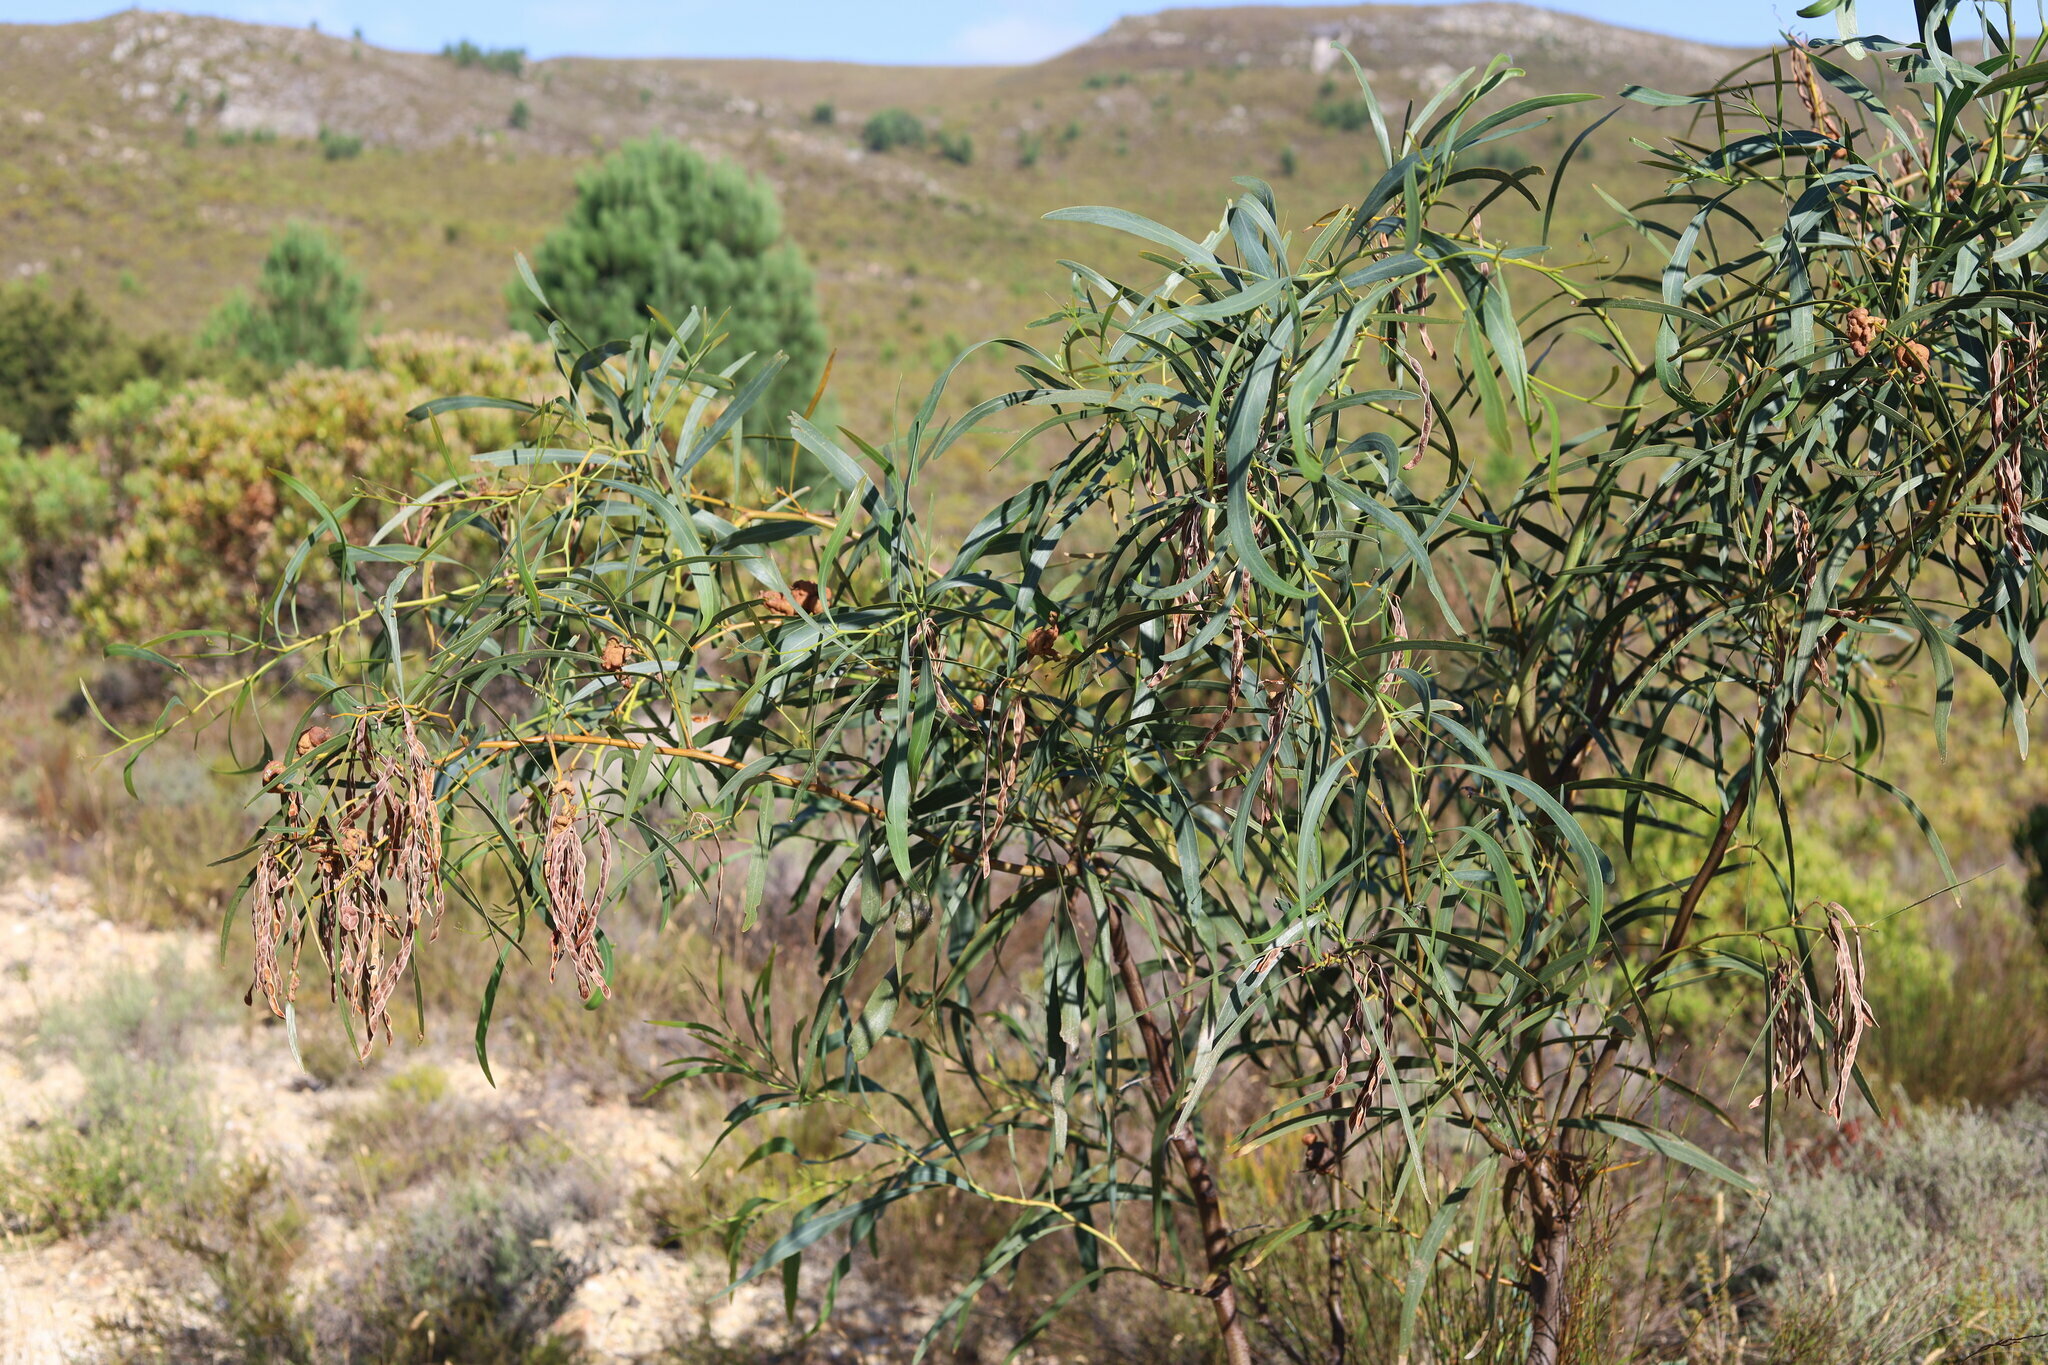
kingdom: Plantae
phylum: Tracheophyta
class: Magnoliopsida
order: Fabales
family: Fabaceae
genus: Acacia
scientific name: Acacia saligna
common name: Orange wattle
